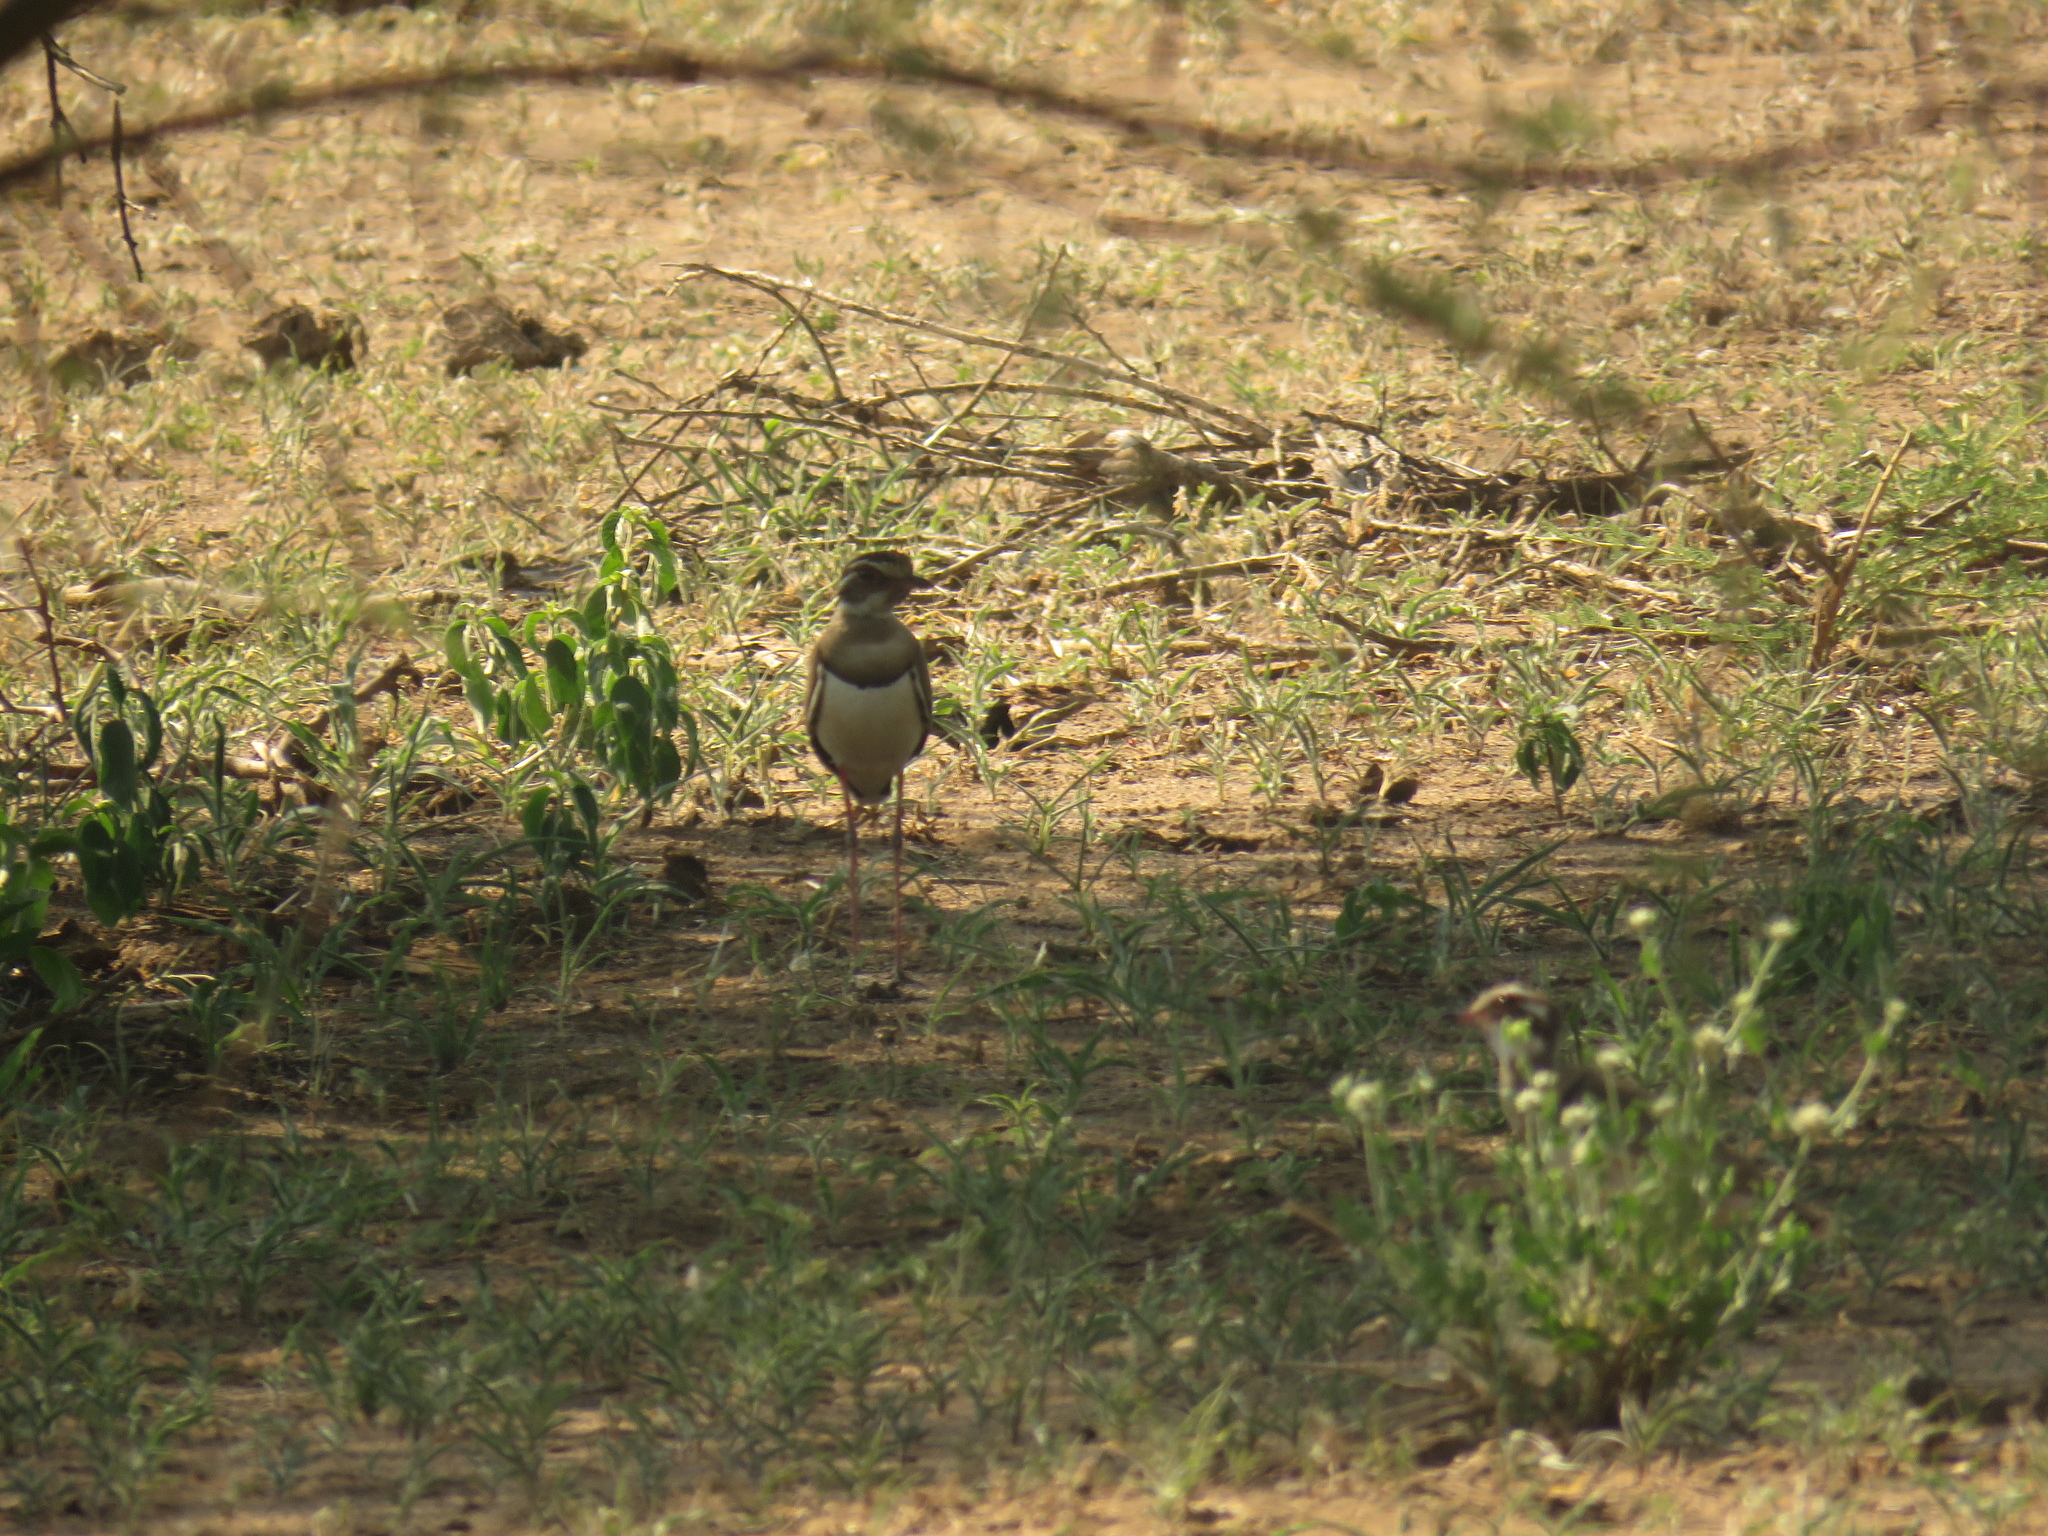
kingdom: Animalia
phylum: Chordata
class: Aves
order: Charadriiformes
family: Glareolidae
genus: Rhinoptilus
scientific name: Rhinoptilus chalcopterus
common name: Bronze-winged courser
